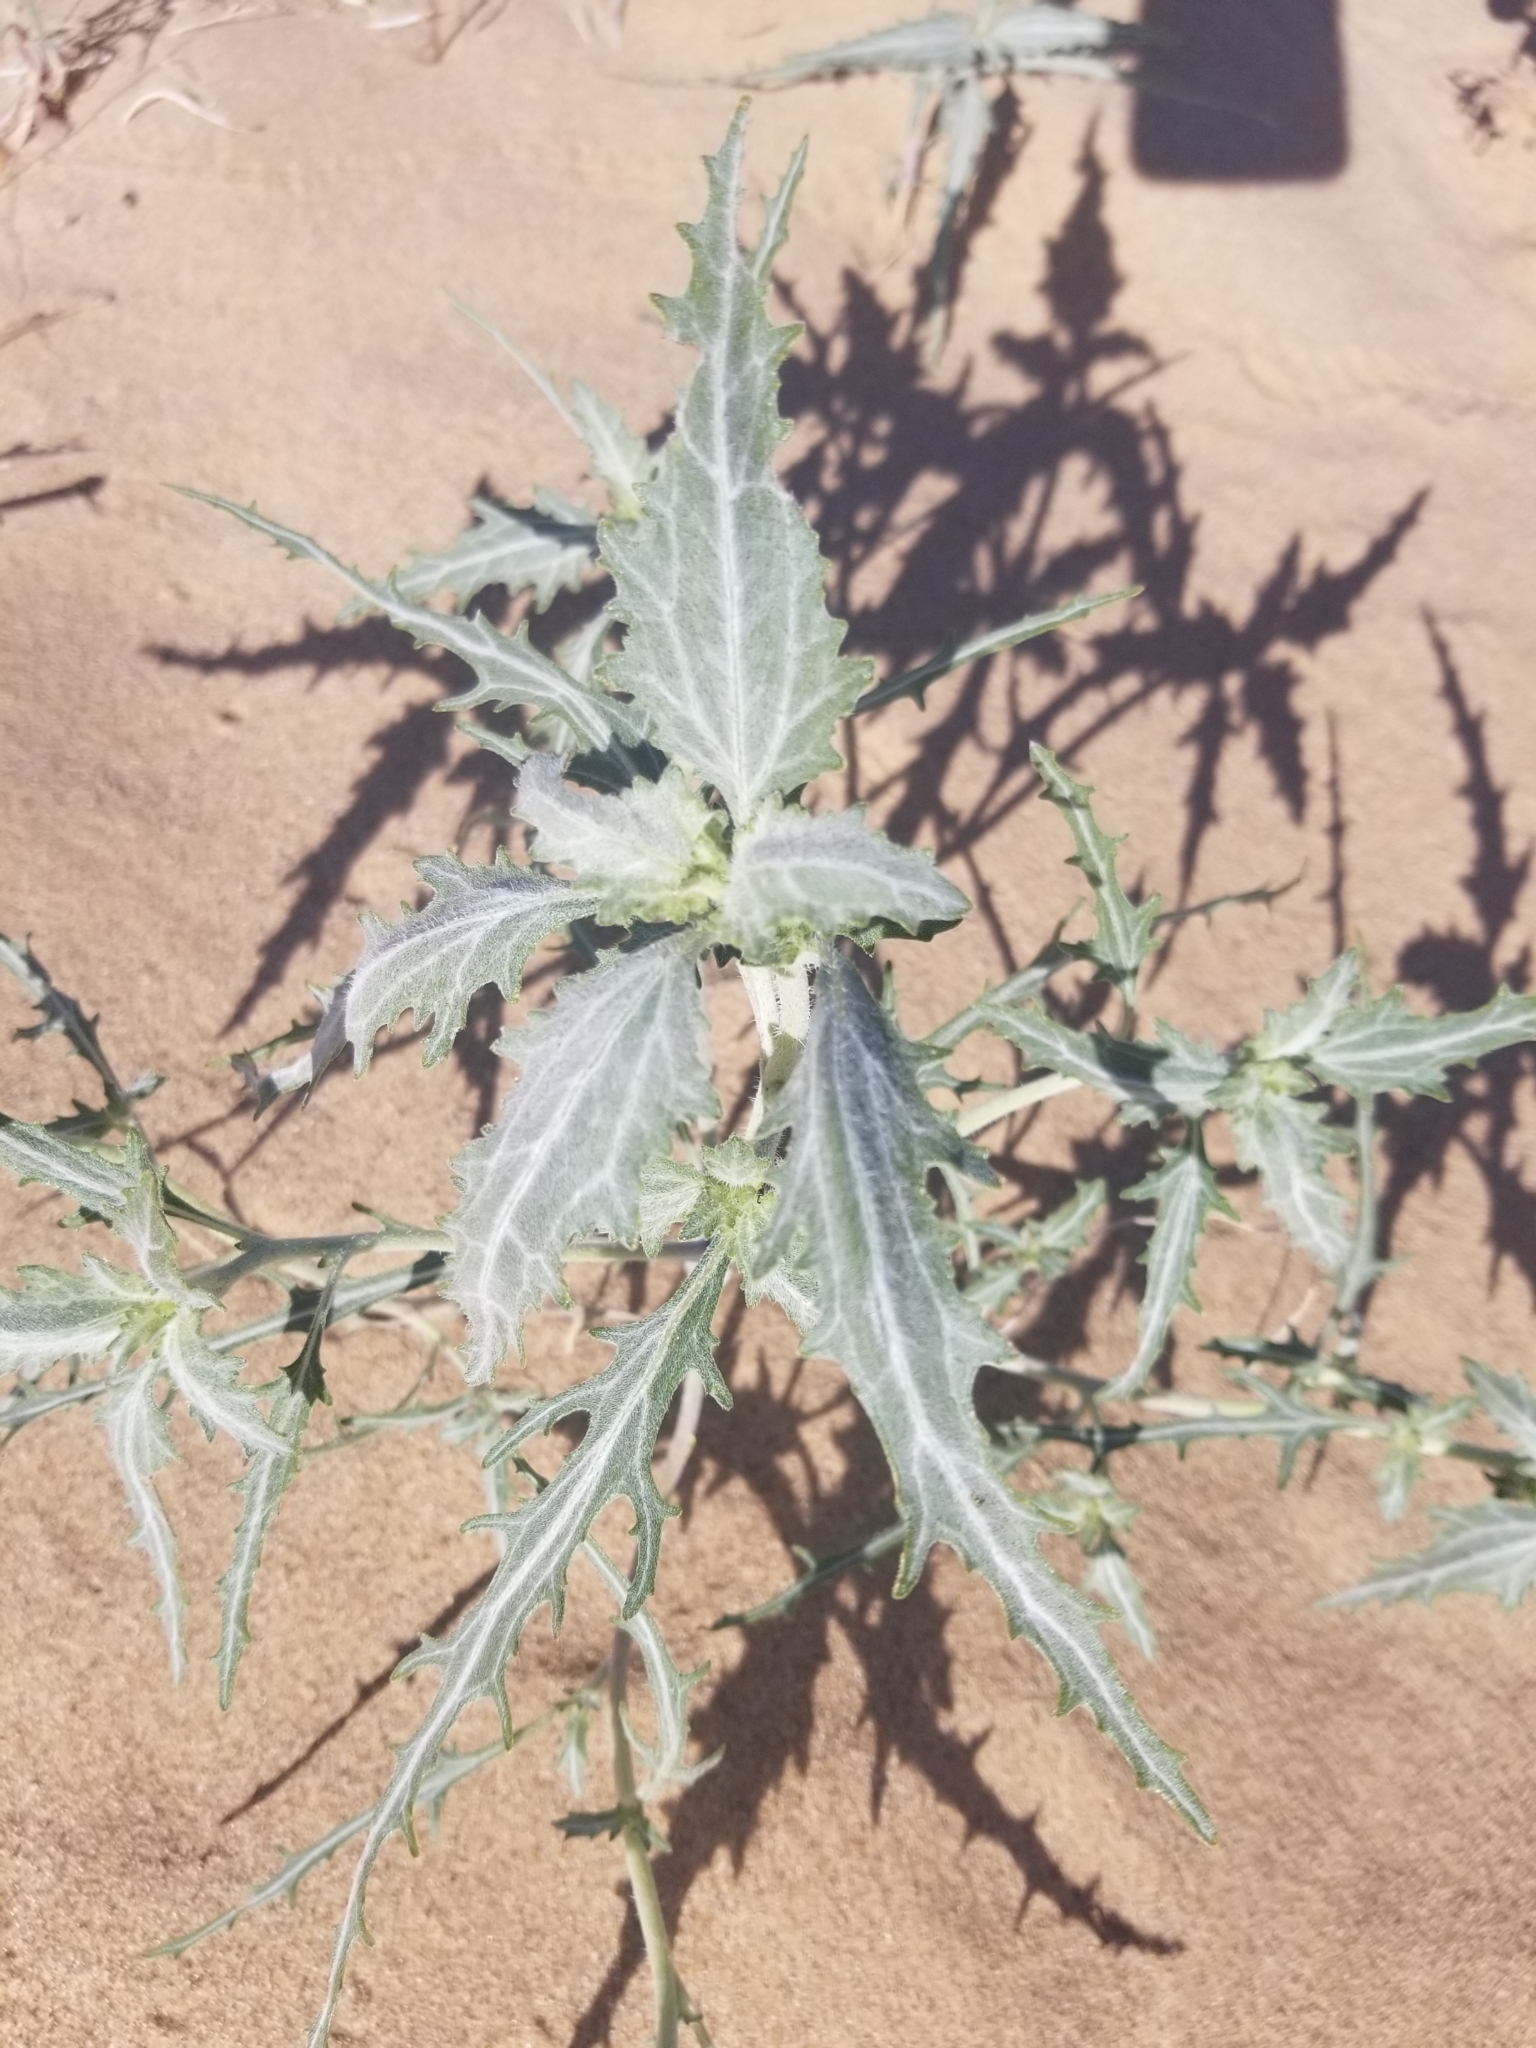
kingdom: Plantae
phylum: Tracheophyta
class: Magnoliopsida
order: Asterales
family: Asteraceae
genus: Dicoria
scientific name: Dicoria canescens
